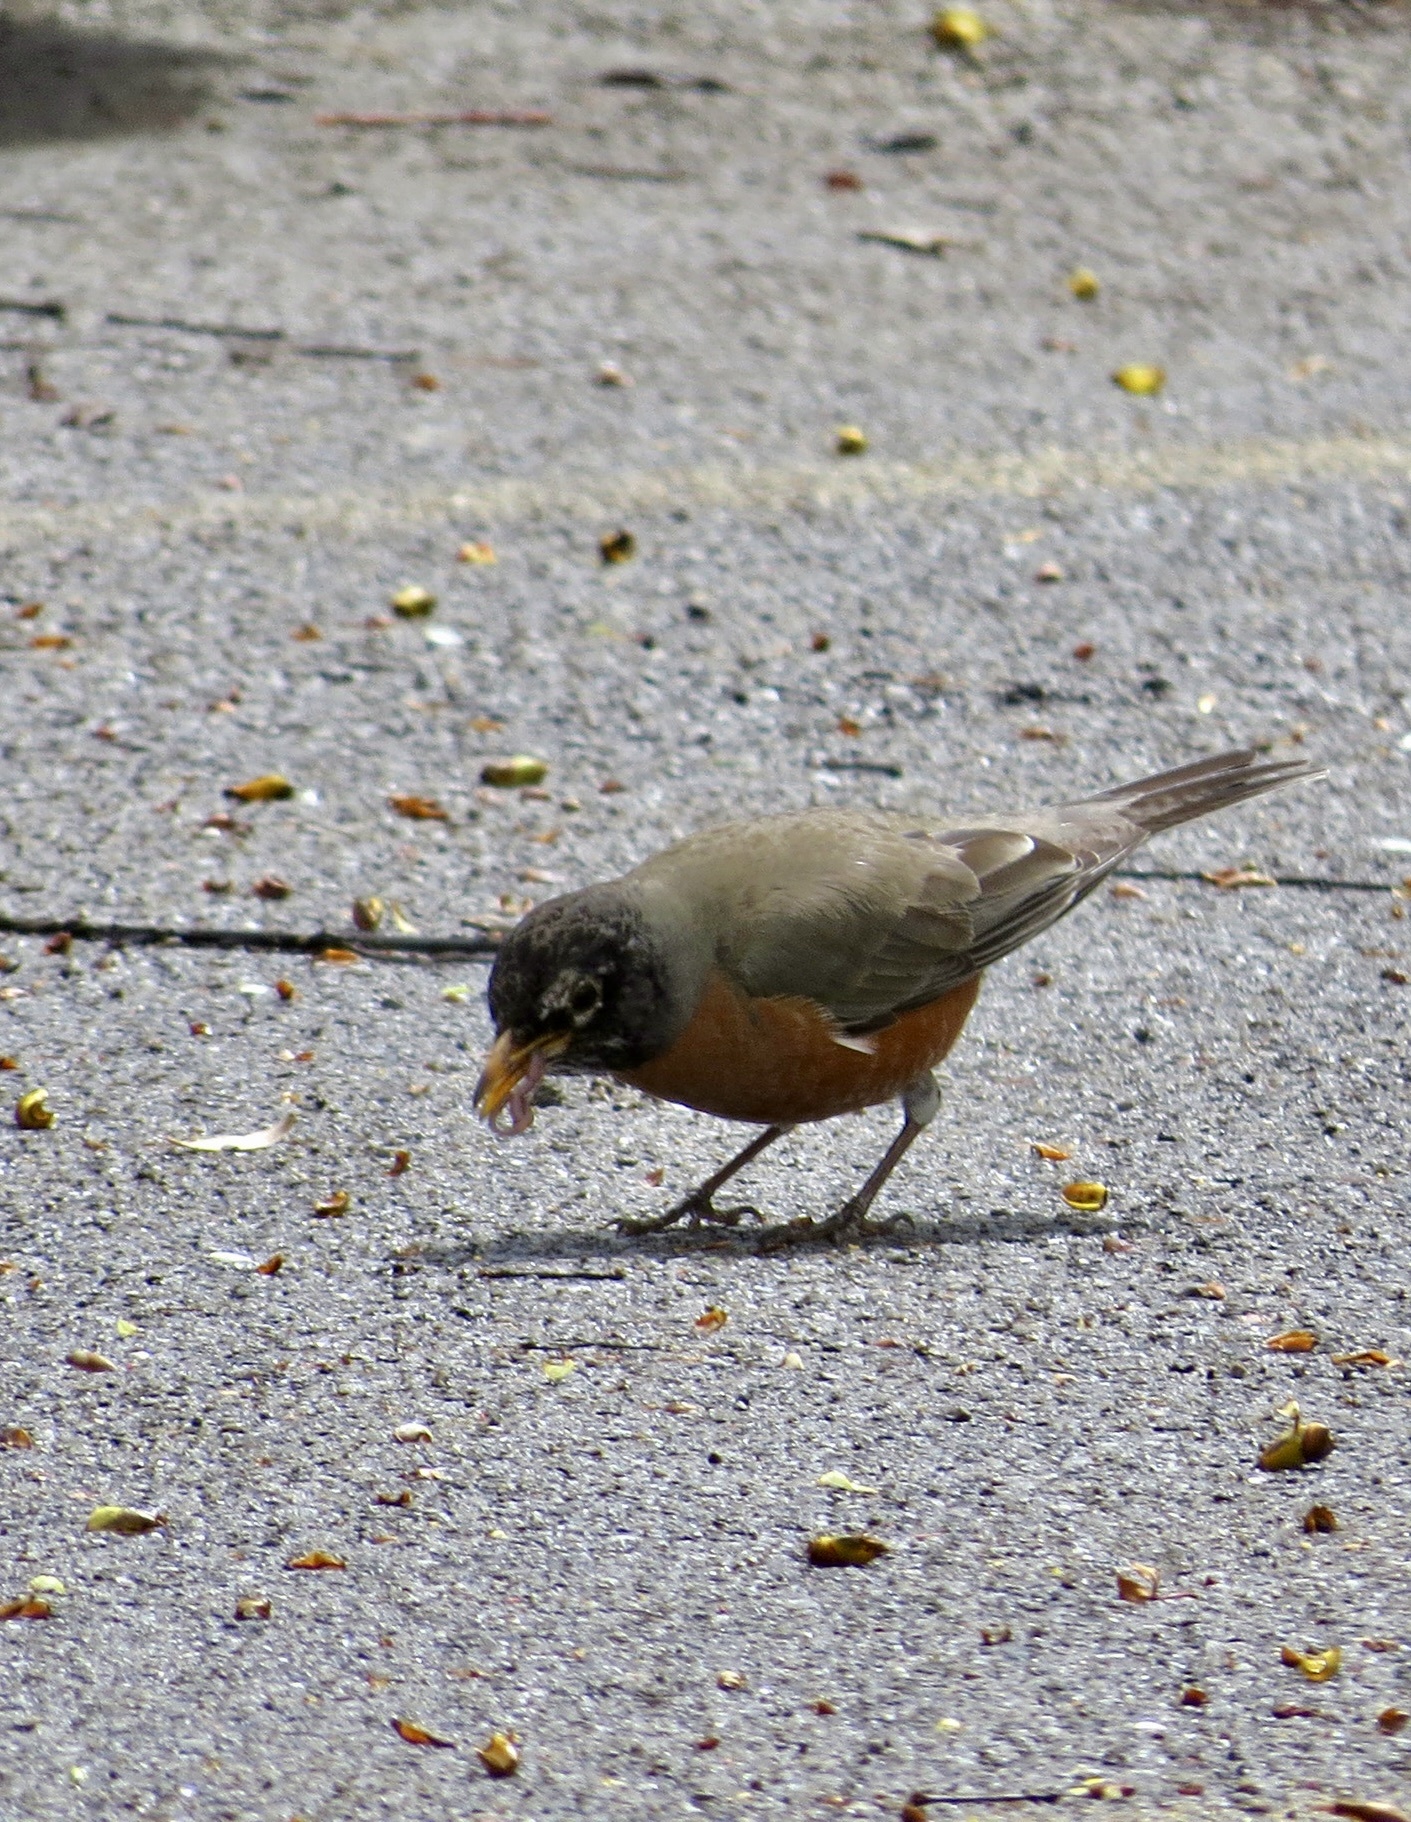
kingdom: Animalia
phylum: Chordata
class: Aves
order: Passeriformes
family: Turdidae
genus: Turdus
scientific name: Turdus migratorius
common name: American robin
